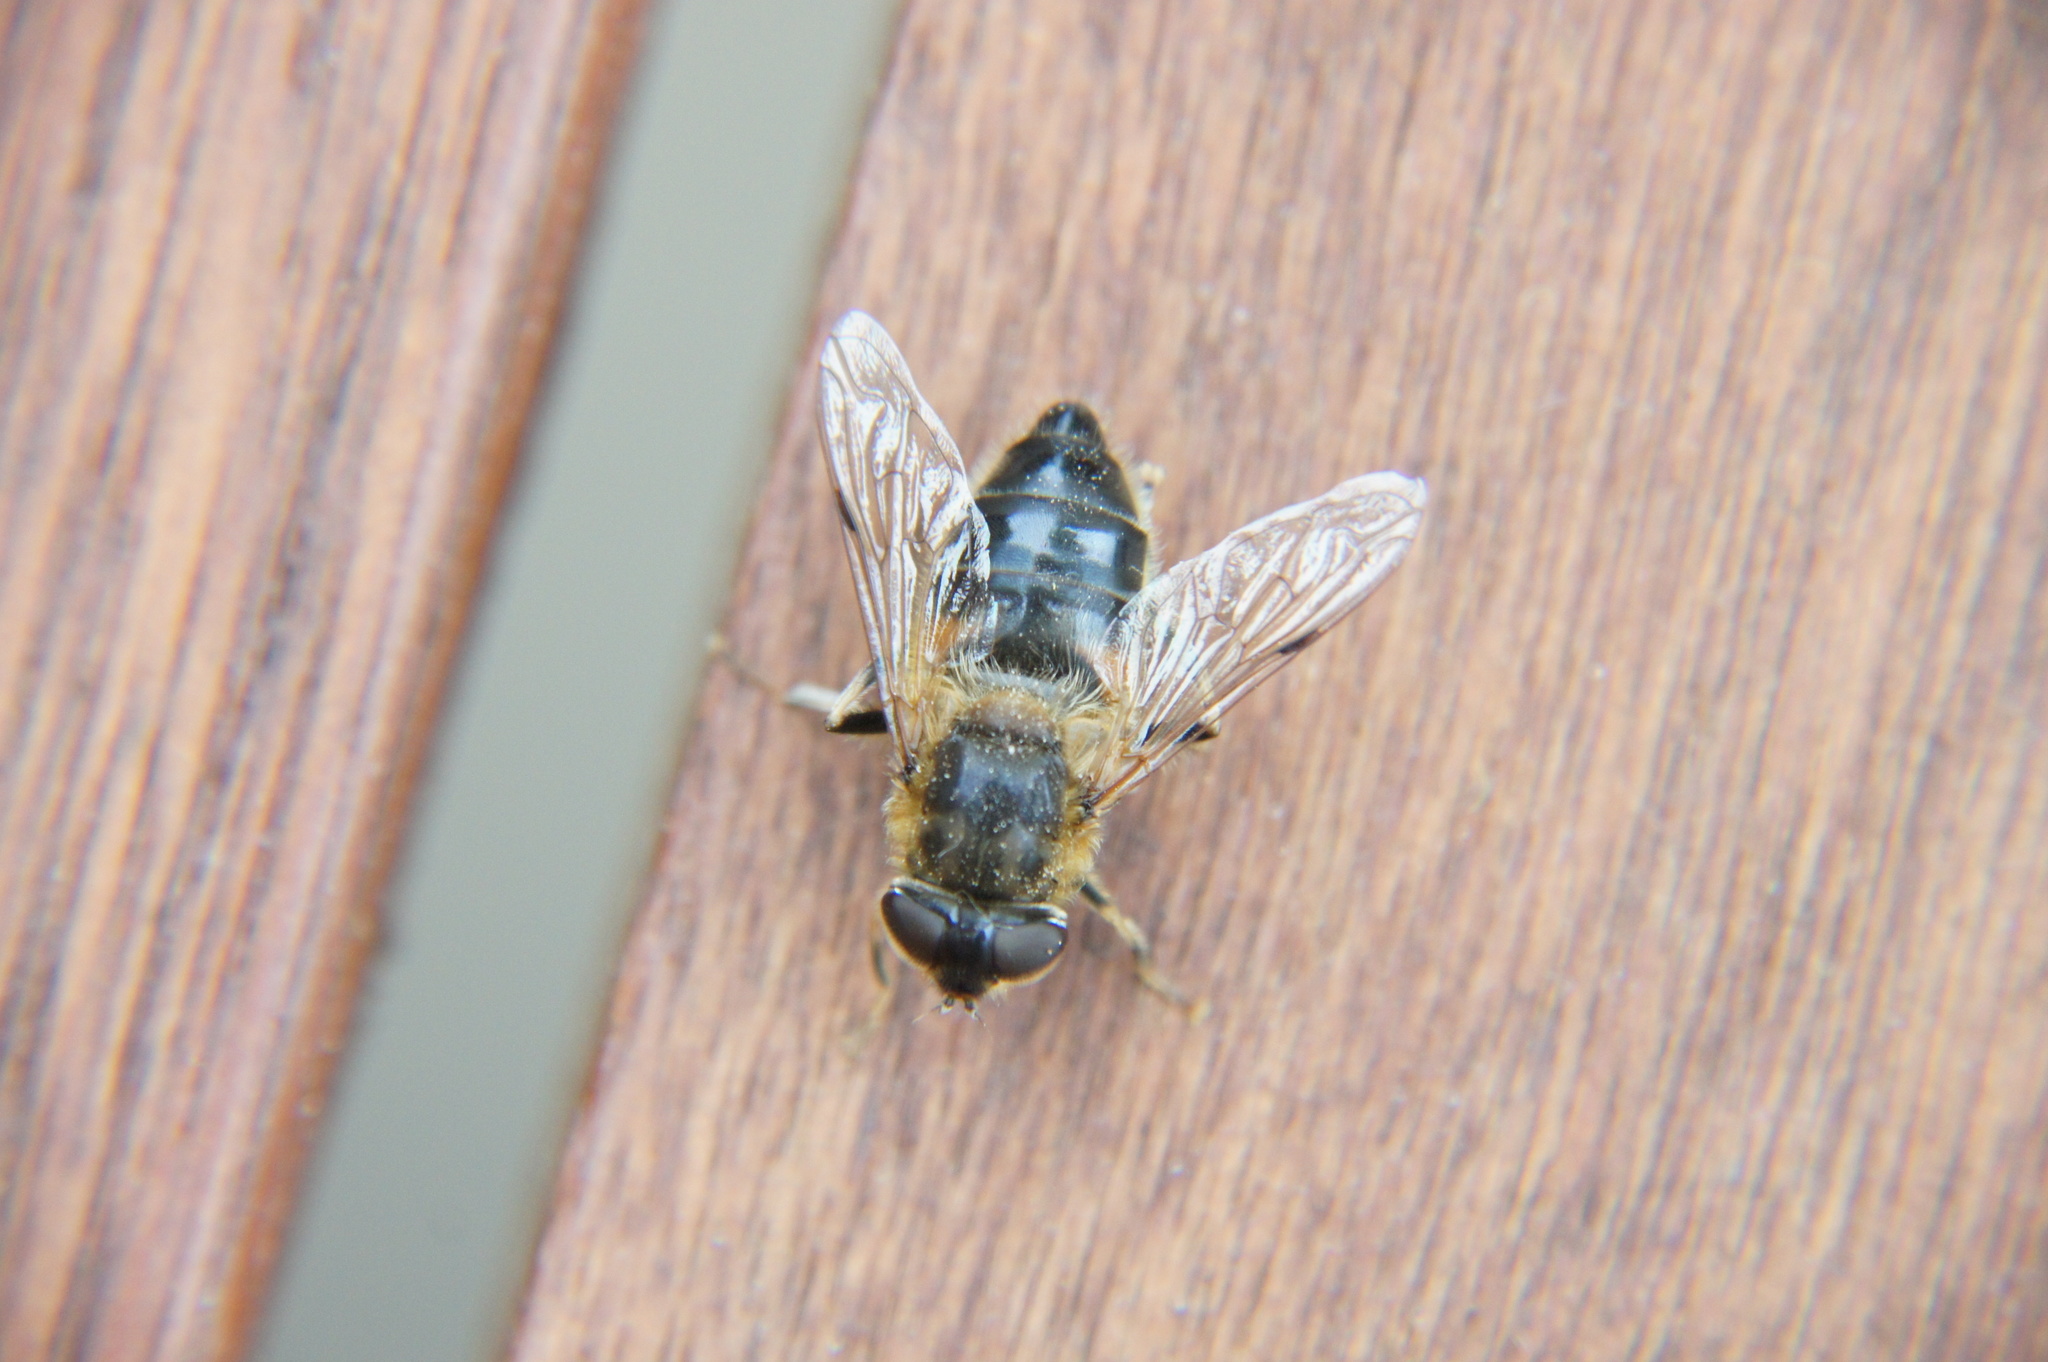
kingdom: Animalia
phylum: Arthropoda
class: Insecta
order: Diptera
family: Syrphidae
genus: Eristalis
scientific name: Eristalis pertinax
